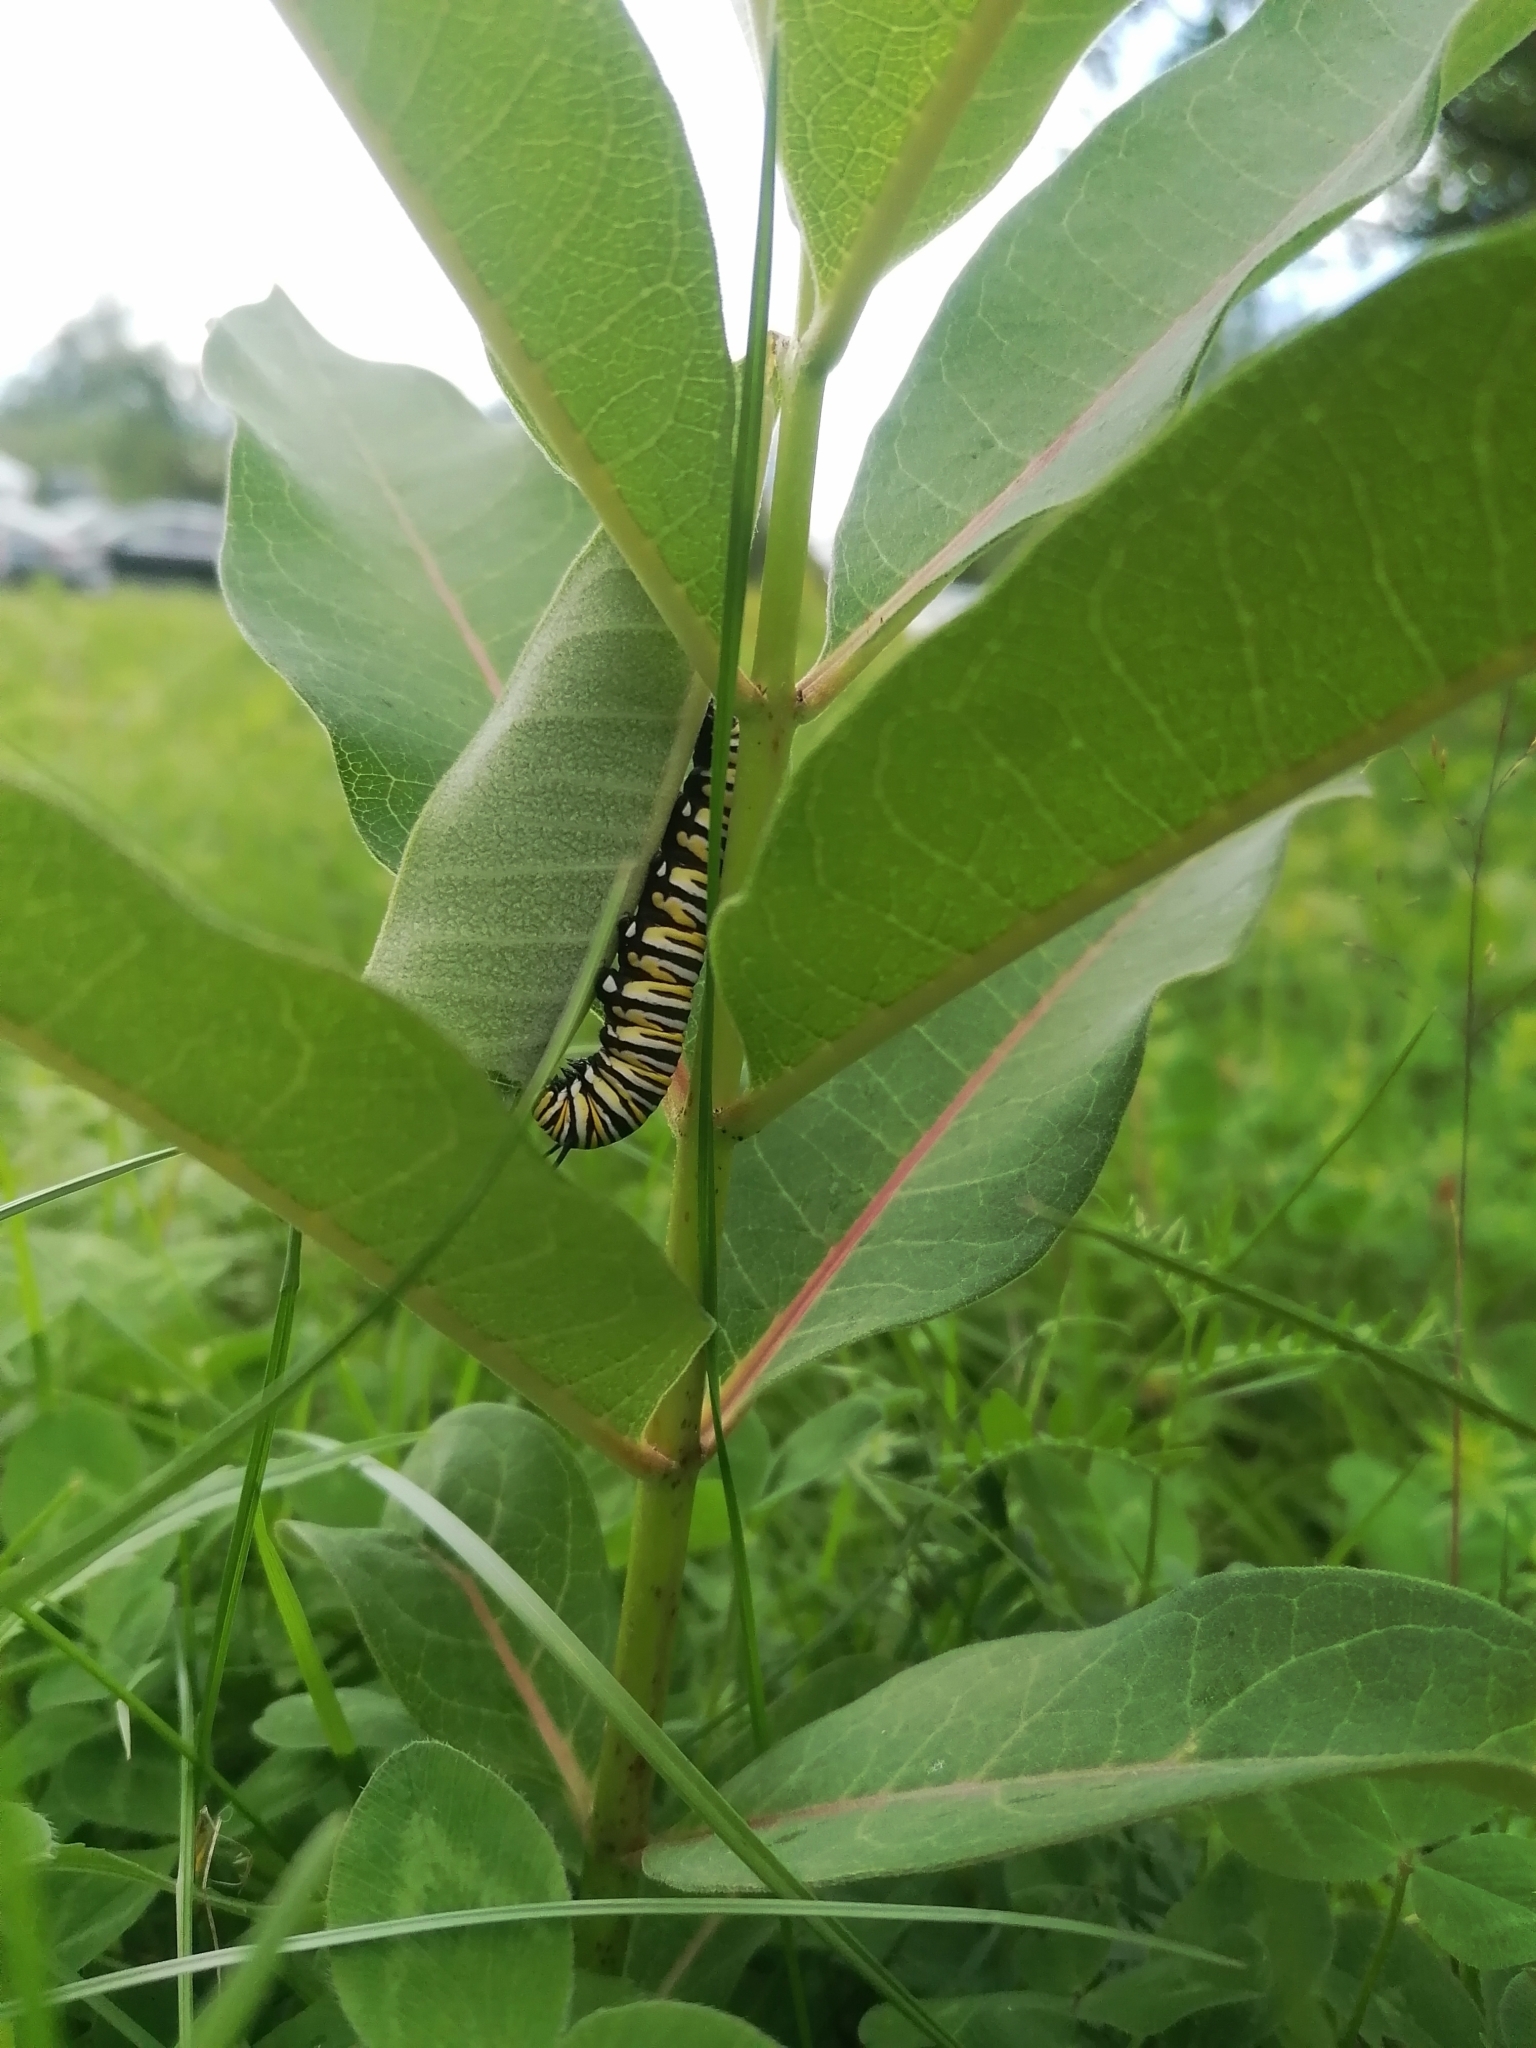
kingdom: Animalia
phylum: Arthropoda
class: Insecta
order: Lepidoptera
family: Nymphalidae
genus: Danaus
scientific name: Danaus plexippus
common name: Monarch
